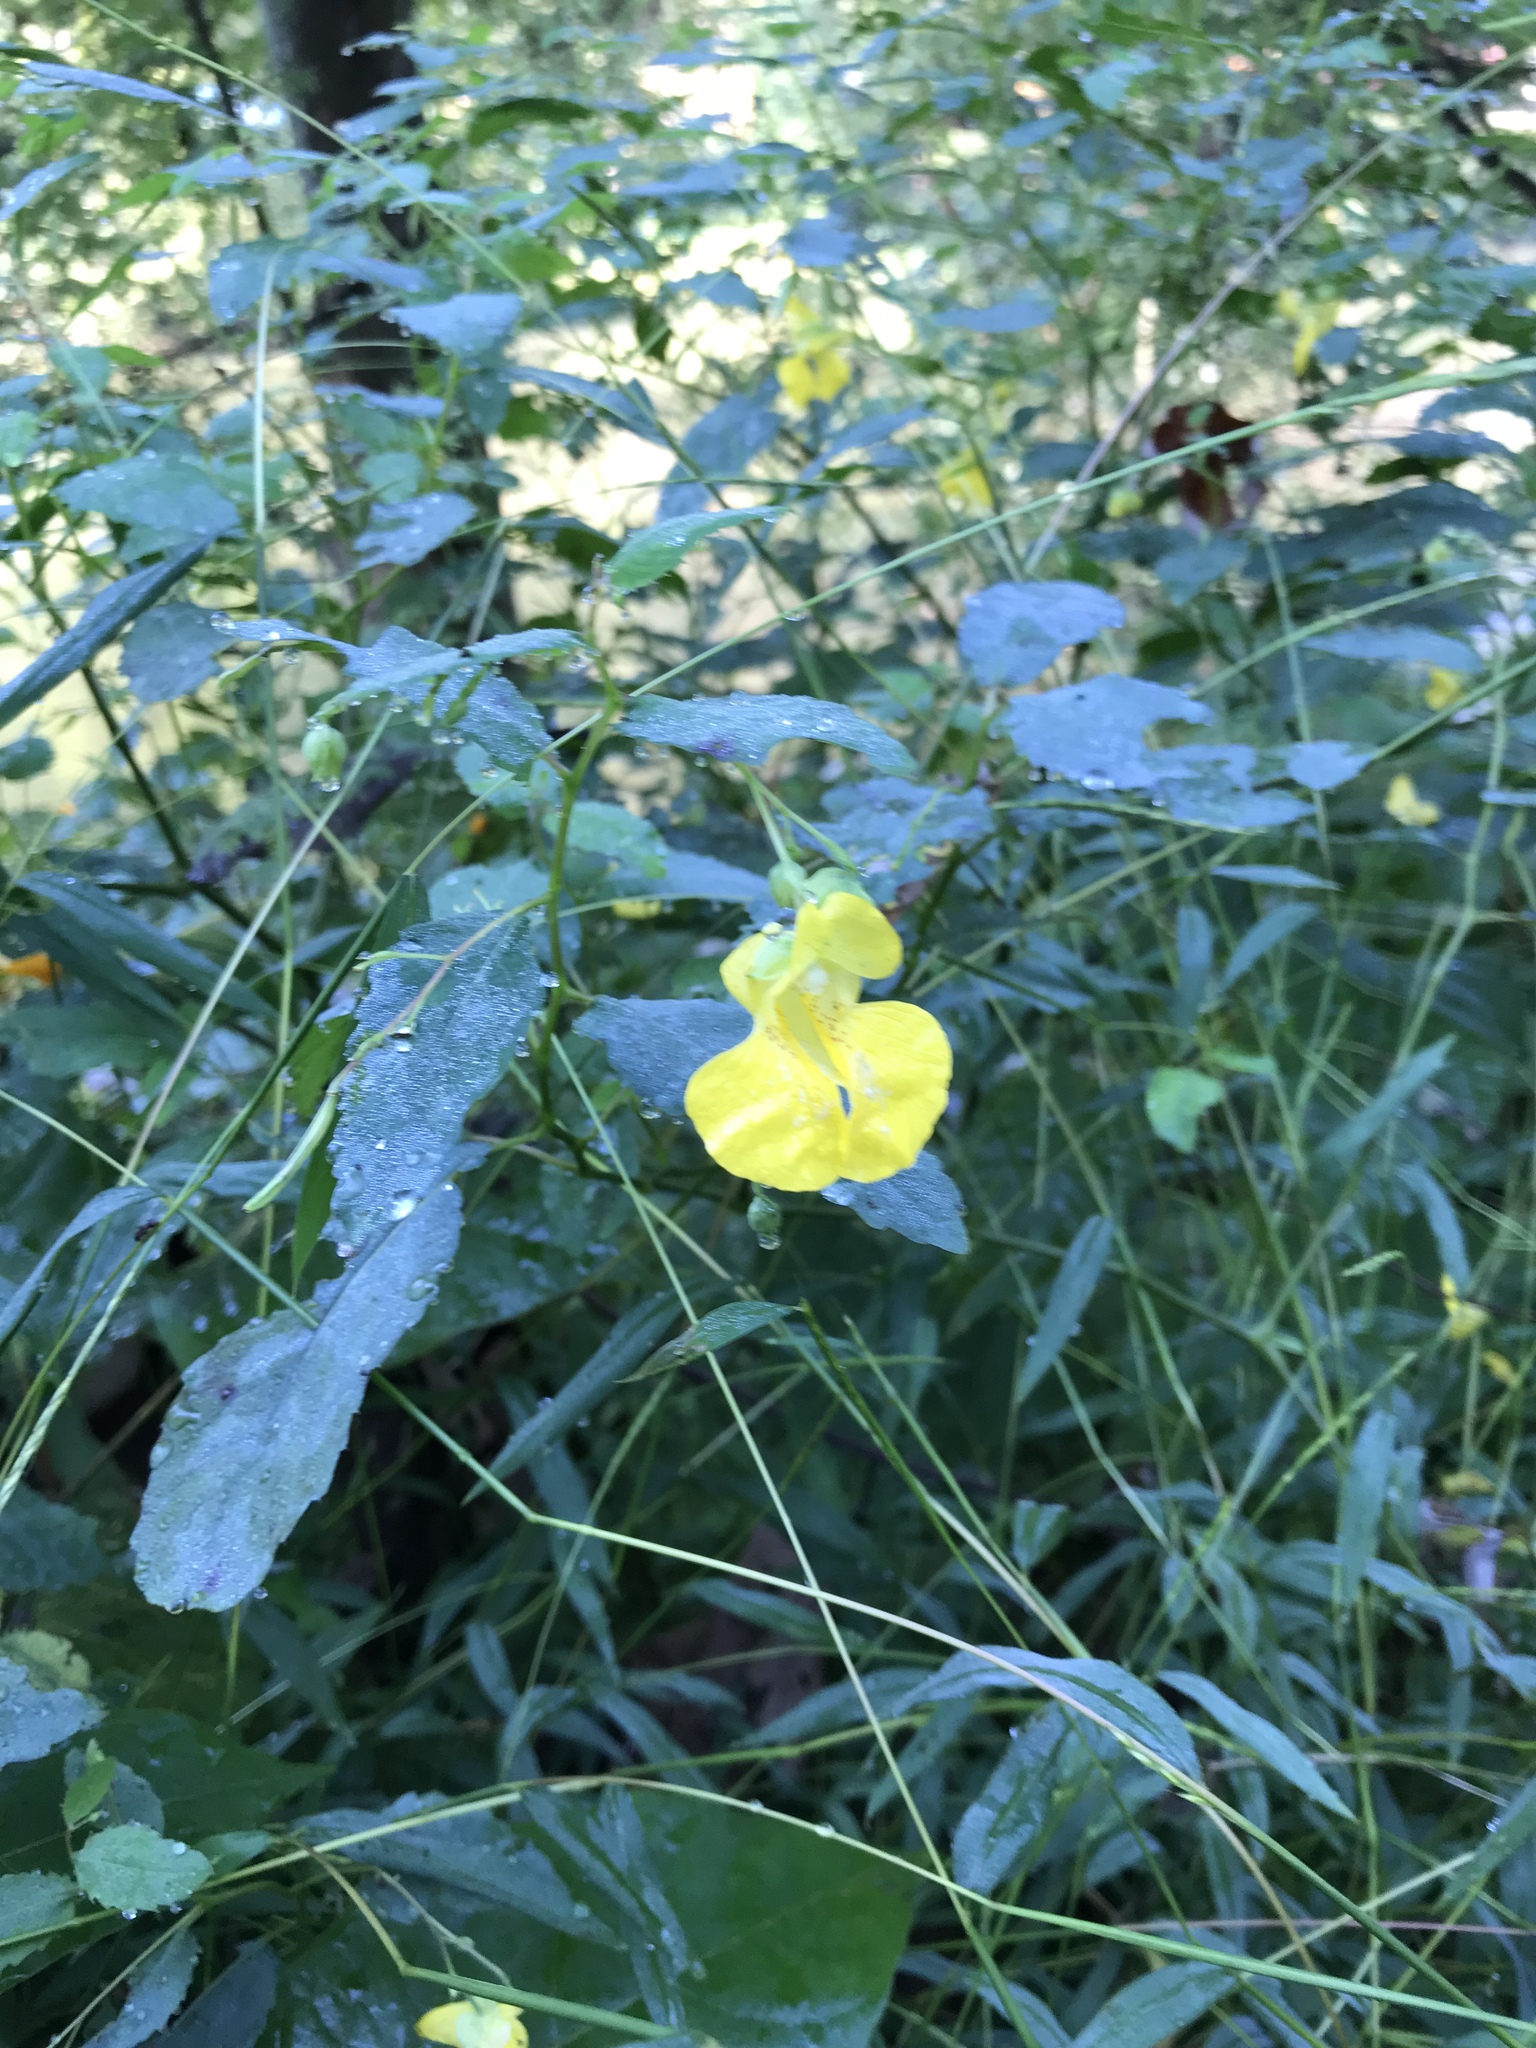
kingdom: Plantae
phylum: Tracheophyta
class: Magnoliopsida
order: Ericales
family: Balsaminaceae
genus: Impatiens
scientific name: Impatiens pallida
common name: Pale snapweed
